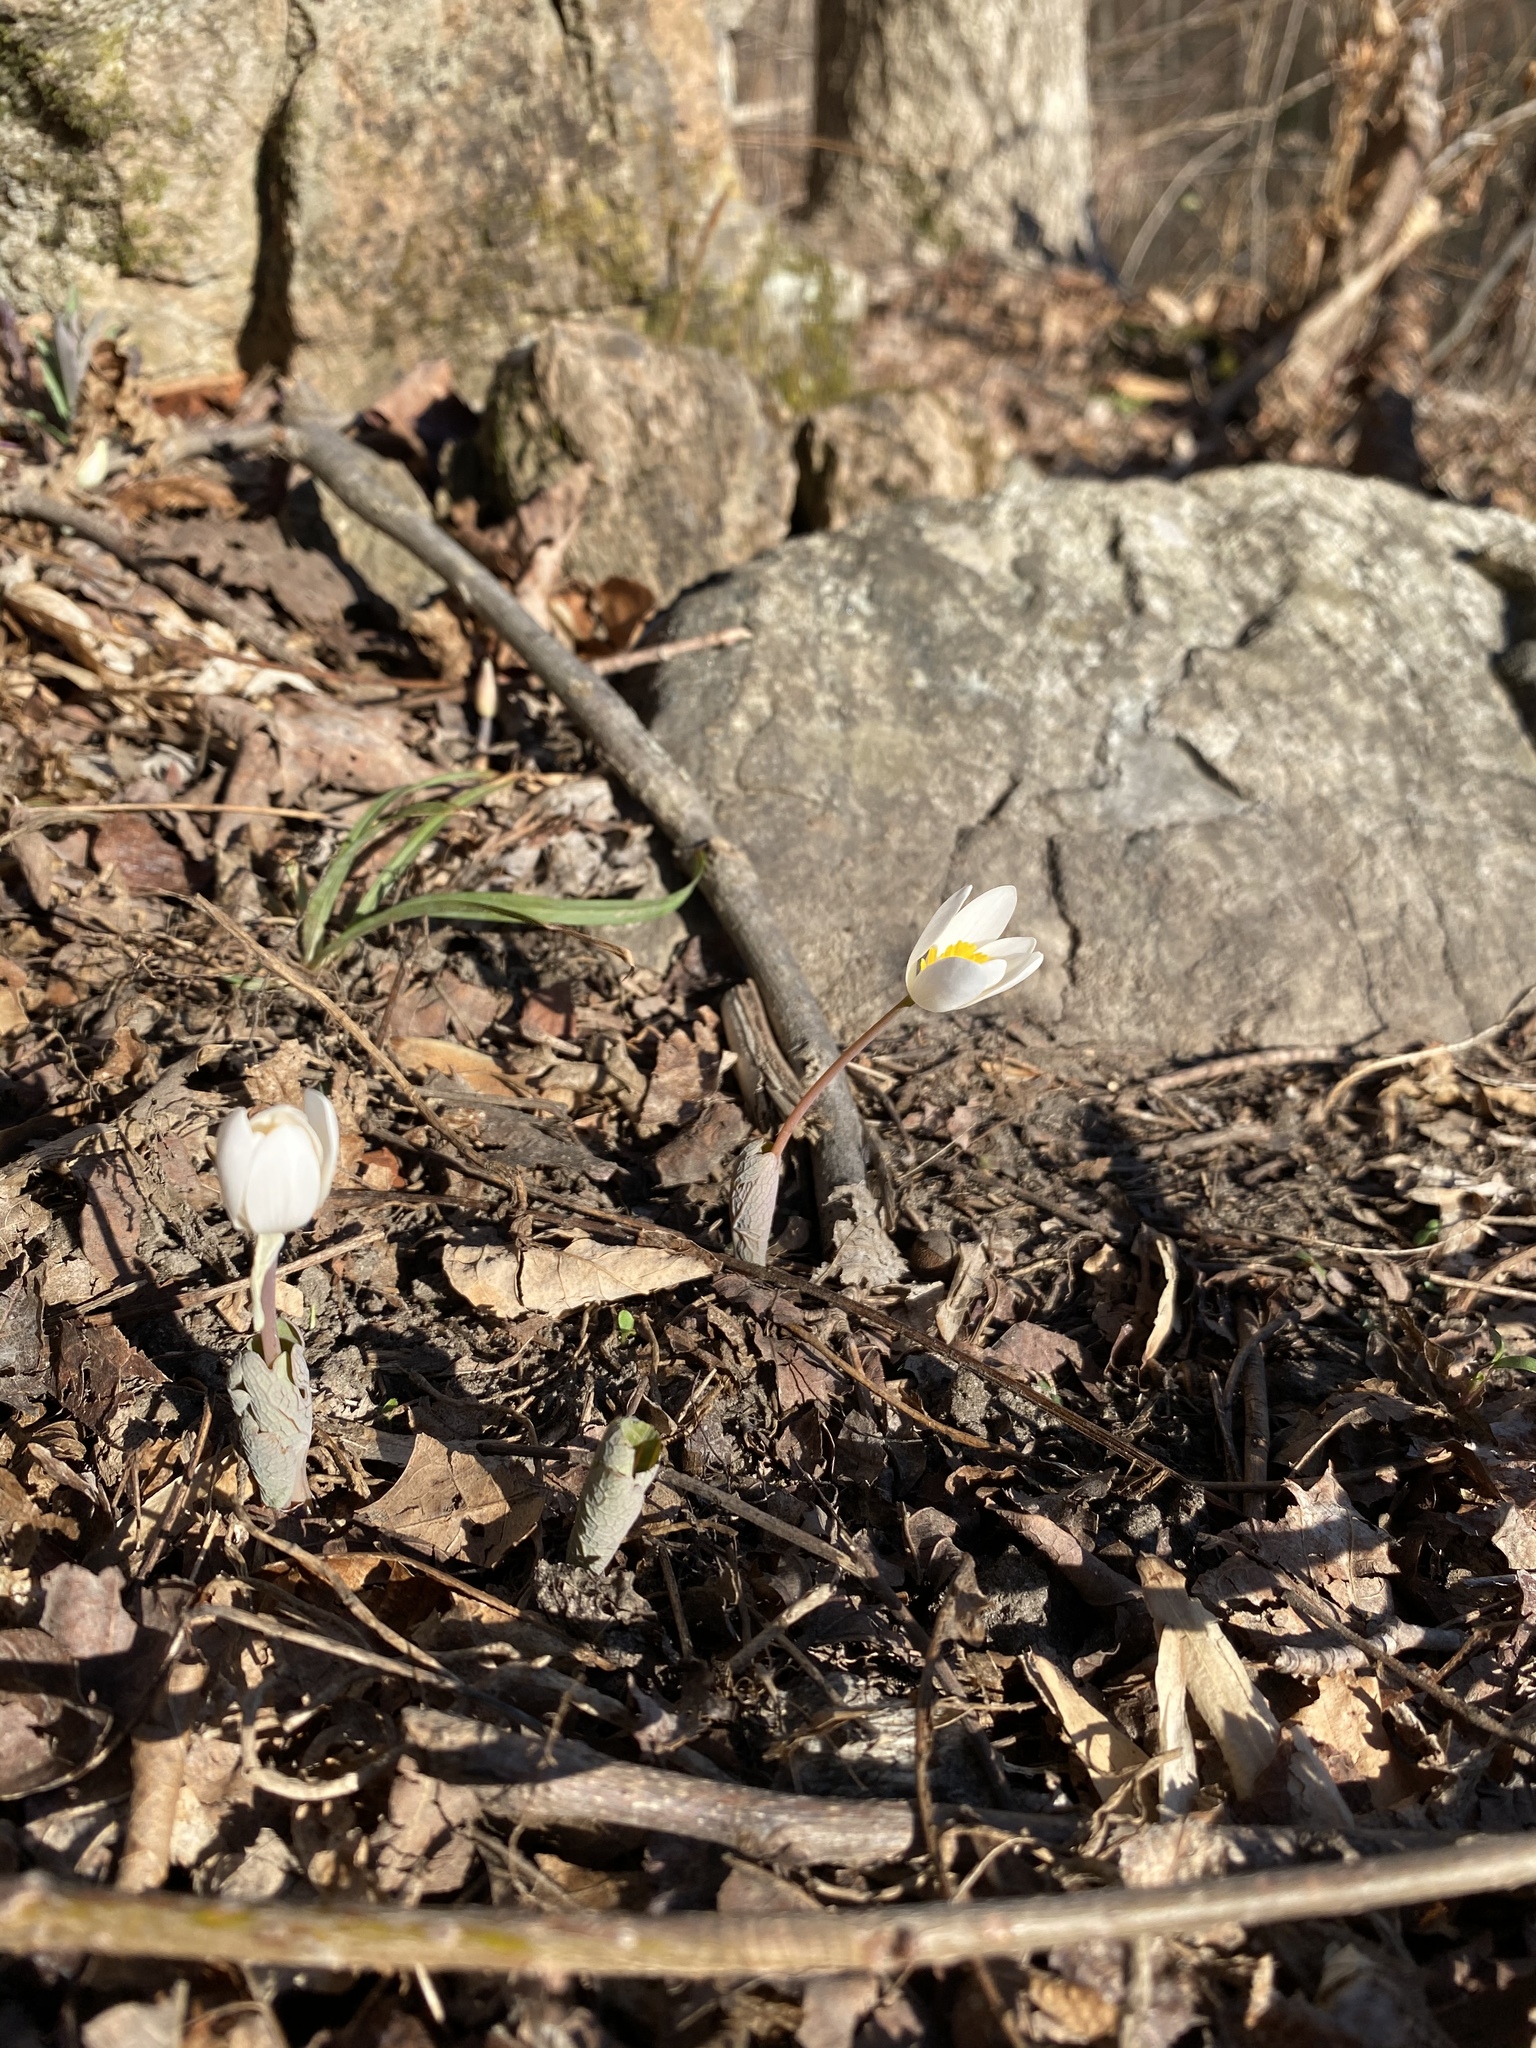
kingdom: Plantae
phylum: Tracheophyta
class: Magnoliopsida
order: Ranunculales
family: Papaveraceae
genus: Sanguinaria
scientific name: Sanguinaria canadensis
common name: Bloodroot
